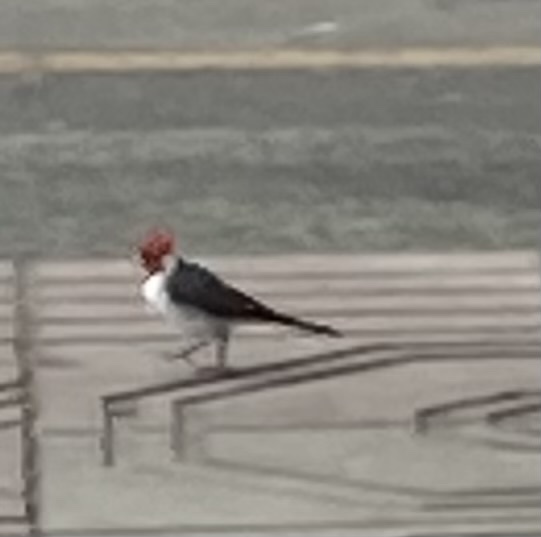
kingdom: Animalia
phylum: Chordata
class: Aves
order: Passeriformes
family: Thraupidae
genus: Paroaria
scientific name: Paroaria coronata
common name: Red-crested cardinal
